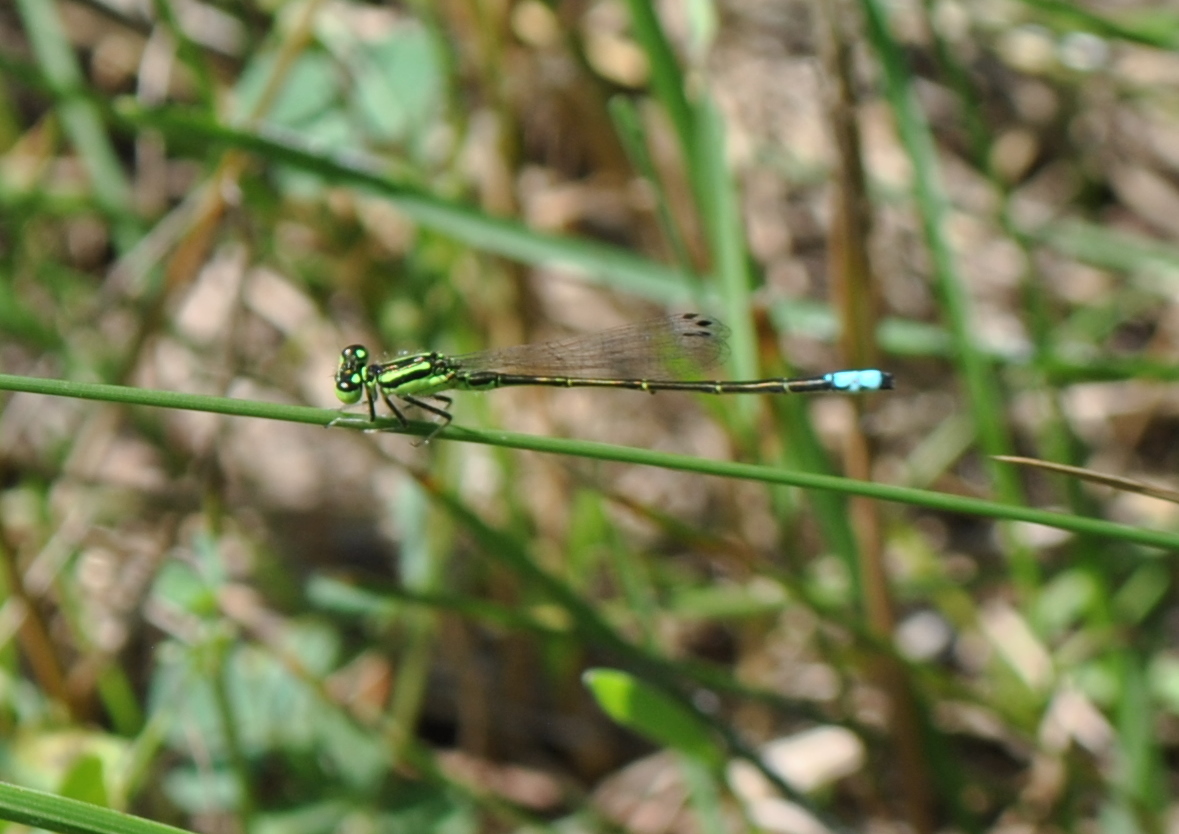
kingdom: Animalia
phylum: Arthropoda
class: Insecta
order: Odonata
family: Coenagrionidae
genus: Ischnura
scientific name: Ischnura verticalis
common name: Eastern forktail
